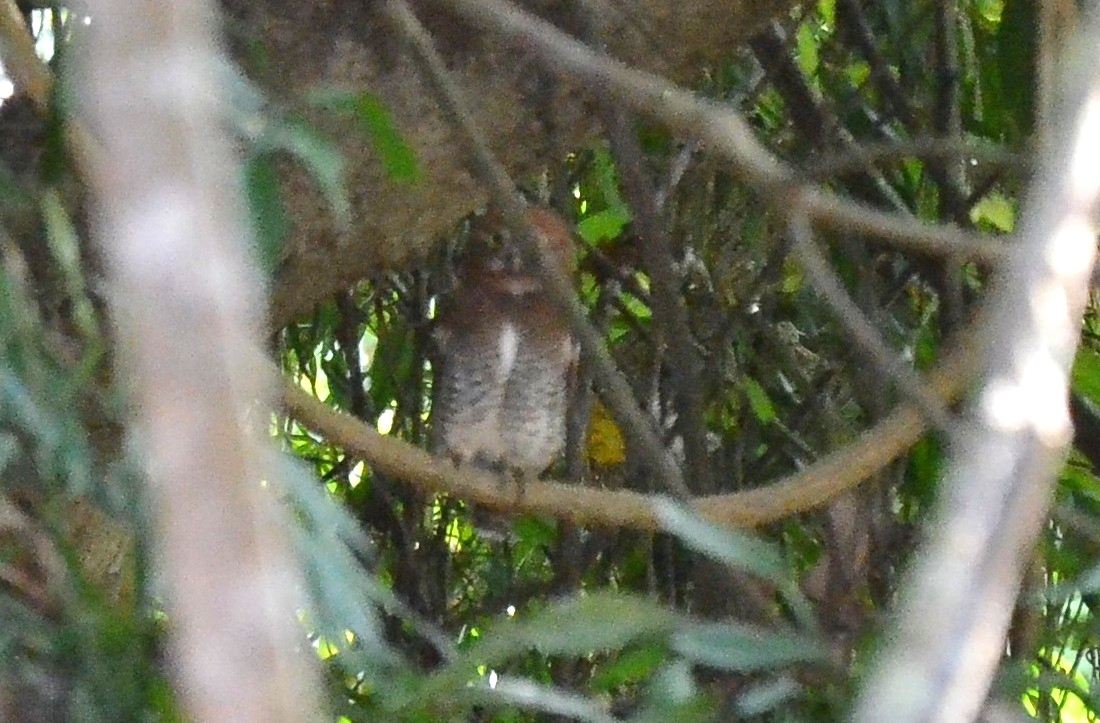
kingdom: Animalia
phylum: Chordata
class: Aves
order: Strigiformes
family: Strigidae
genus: Glaucidium
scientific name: Glaucidium radiatum
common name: Jungle owlet
